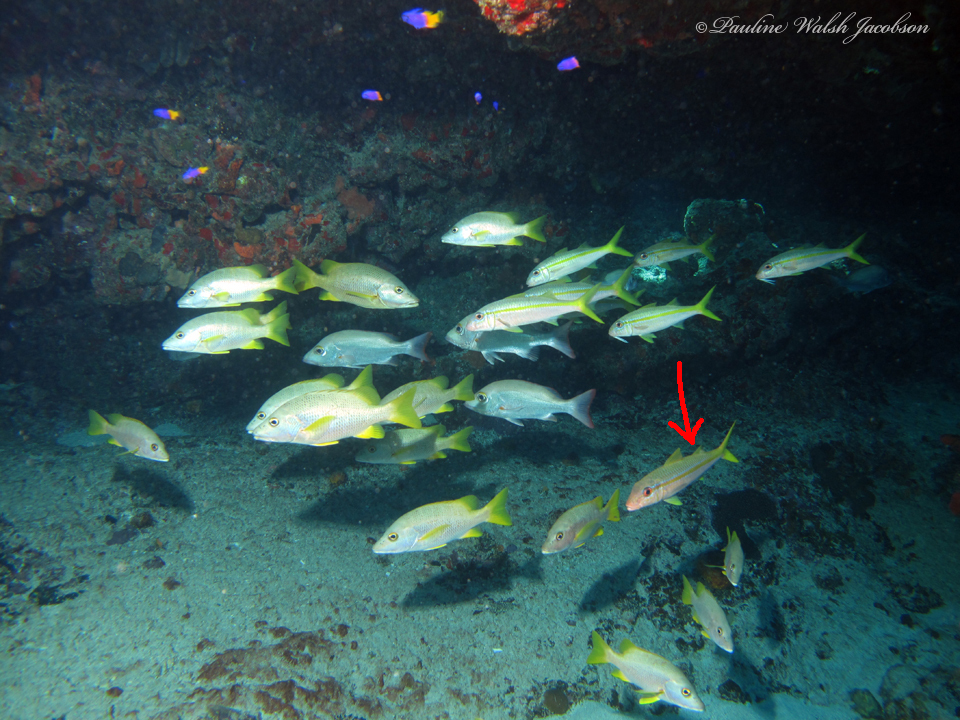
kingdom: Animalia
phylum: Chordata
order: Perciformes
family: Mullidae
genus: Mulloidichthys
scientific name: Mulloidichthys martinicus
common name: Yellow goatfish
